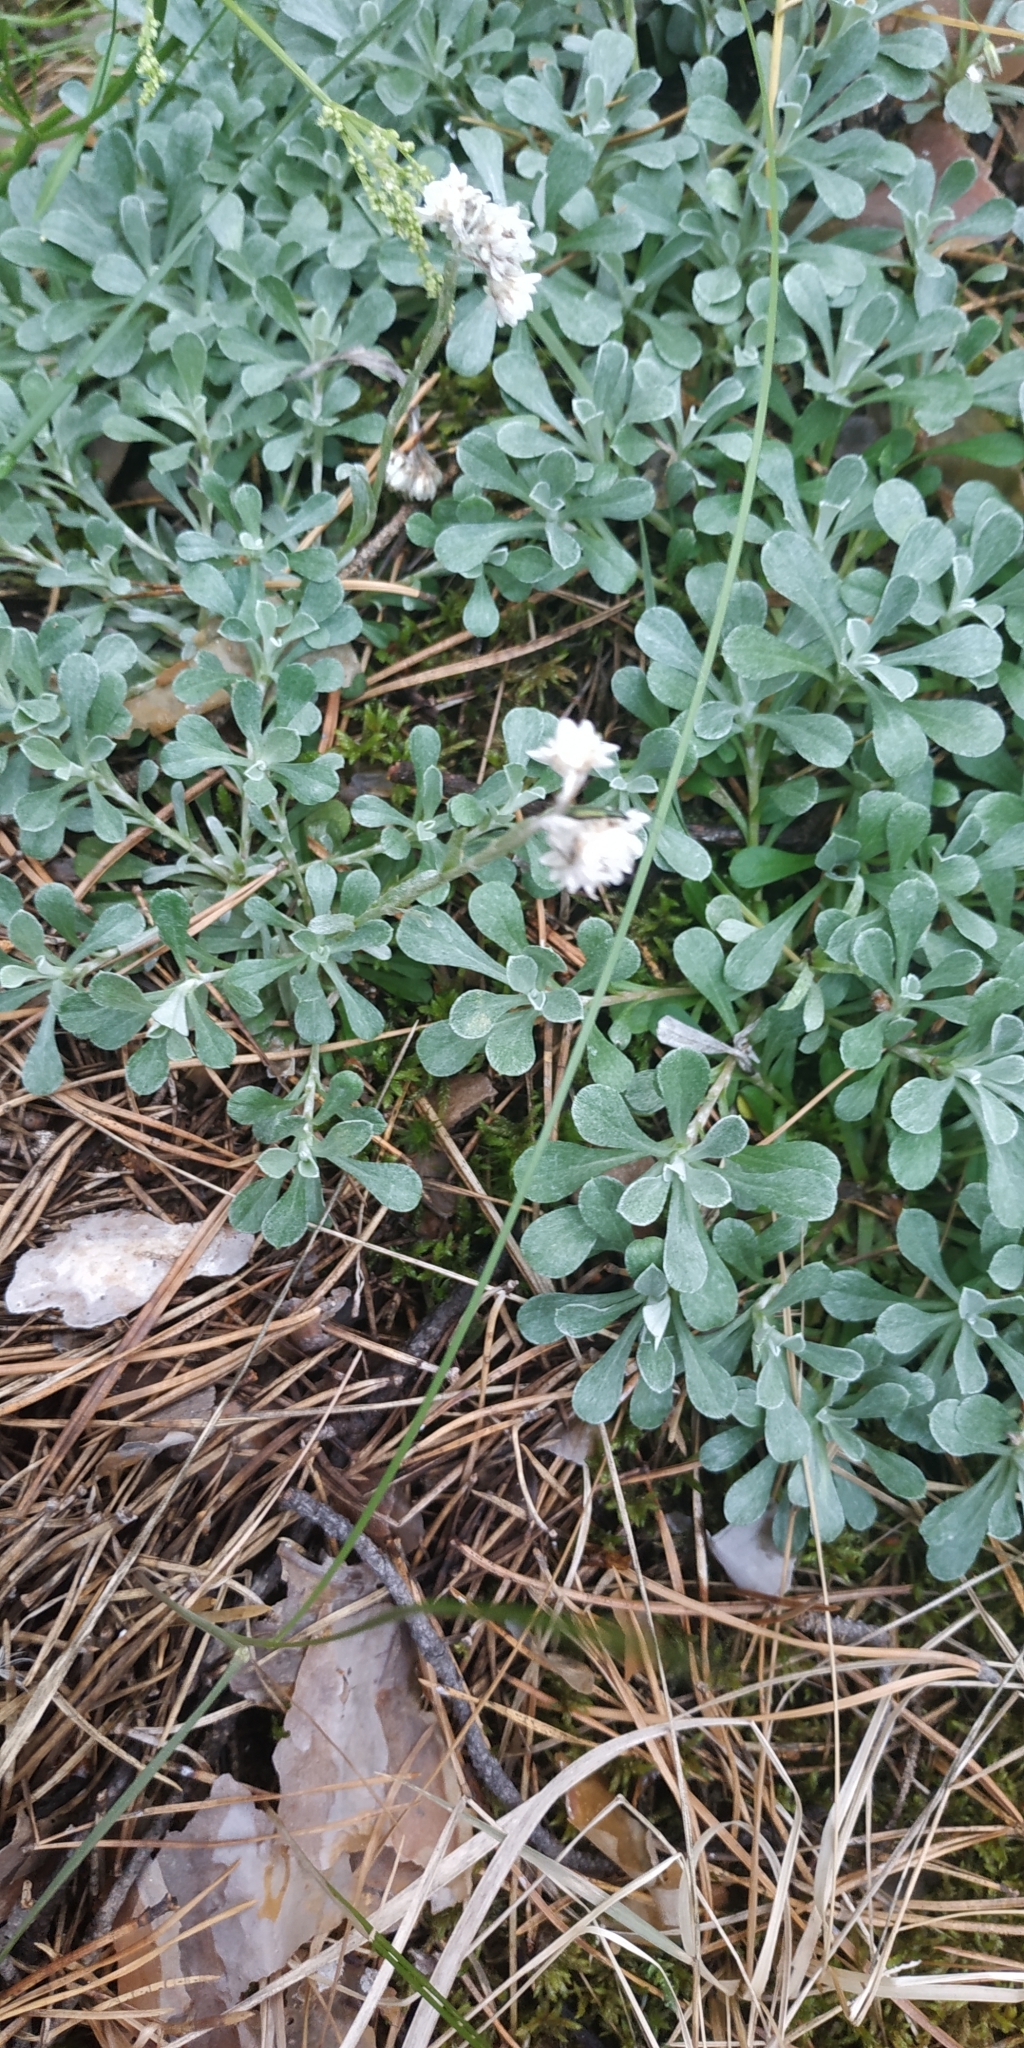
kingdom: Plantae
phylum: Tracheophyta
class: Magnoliopsida
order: Asterales
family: Asteraceae
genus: Antennaria
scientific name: Antennaria dioica
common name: Mountain everlasting
